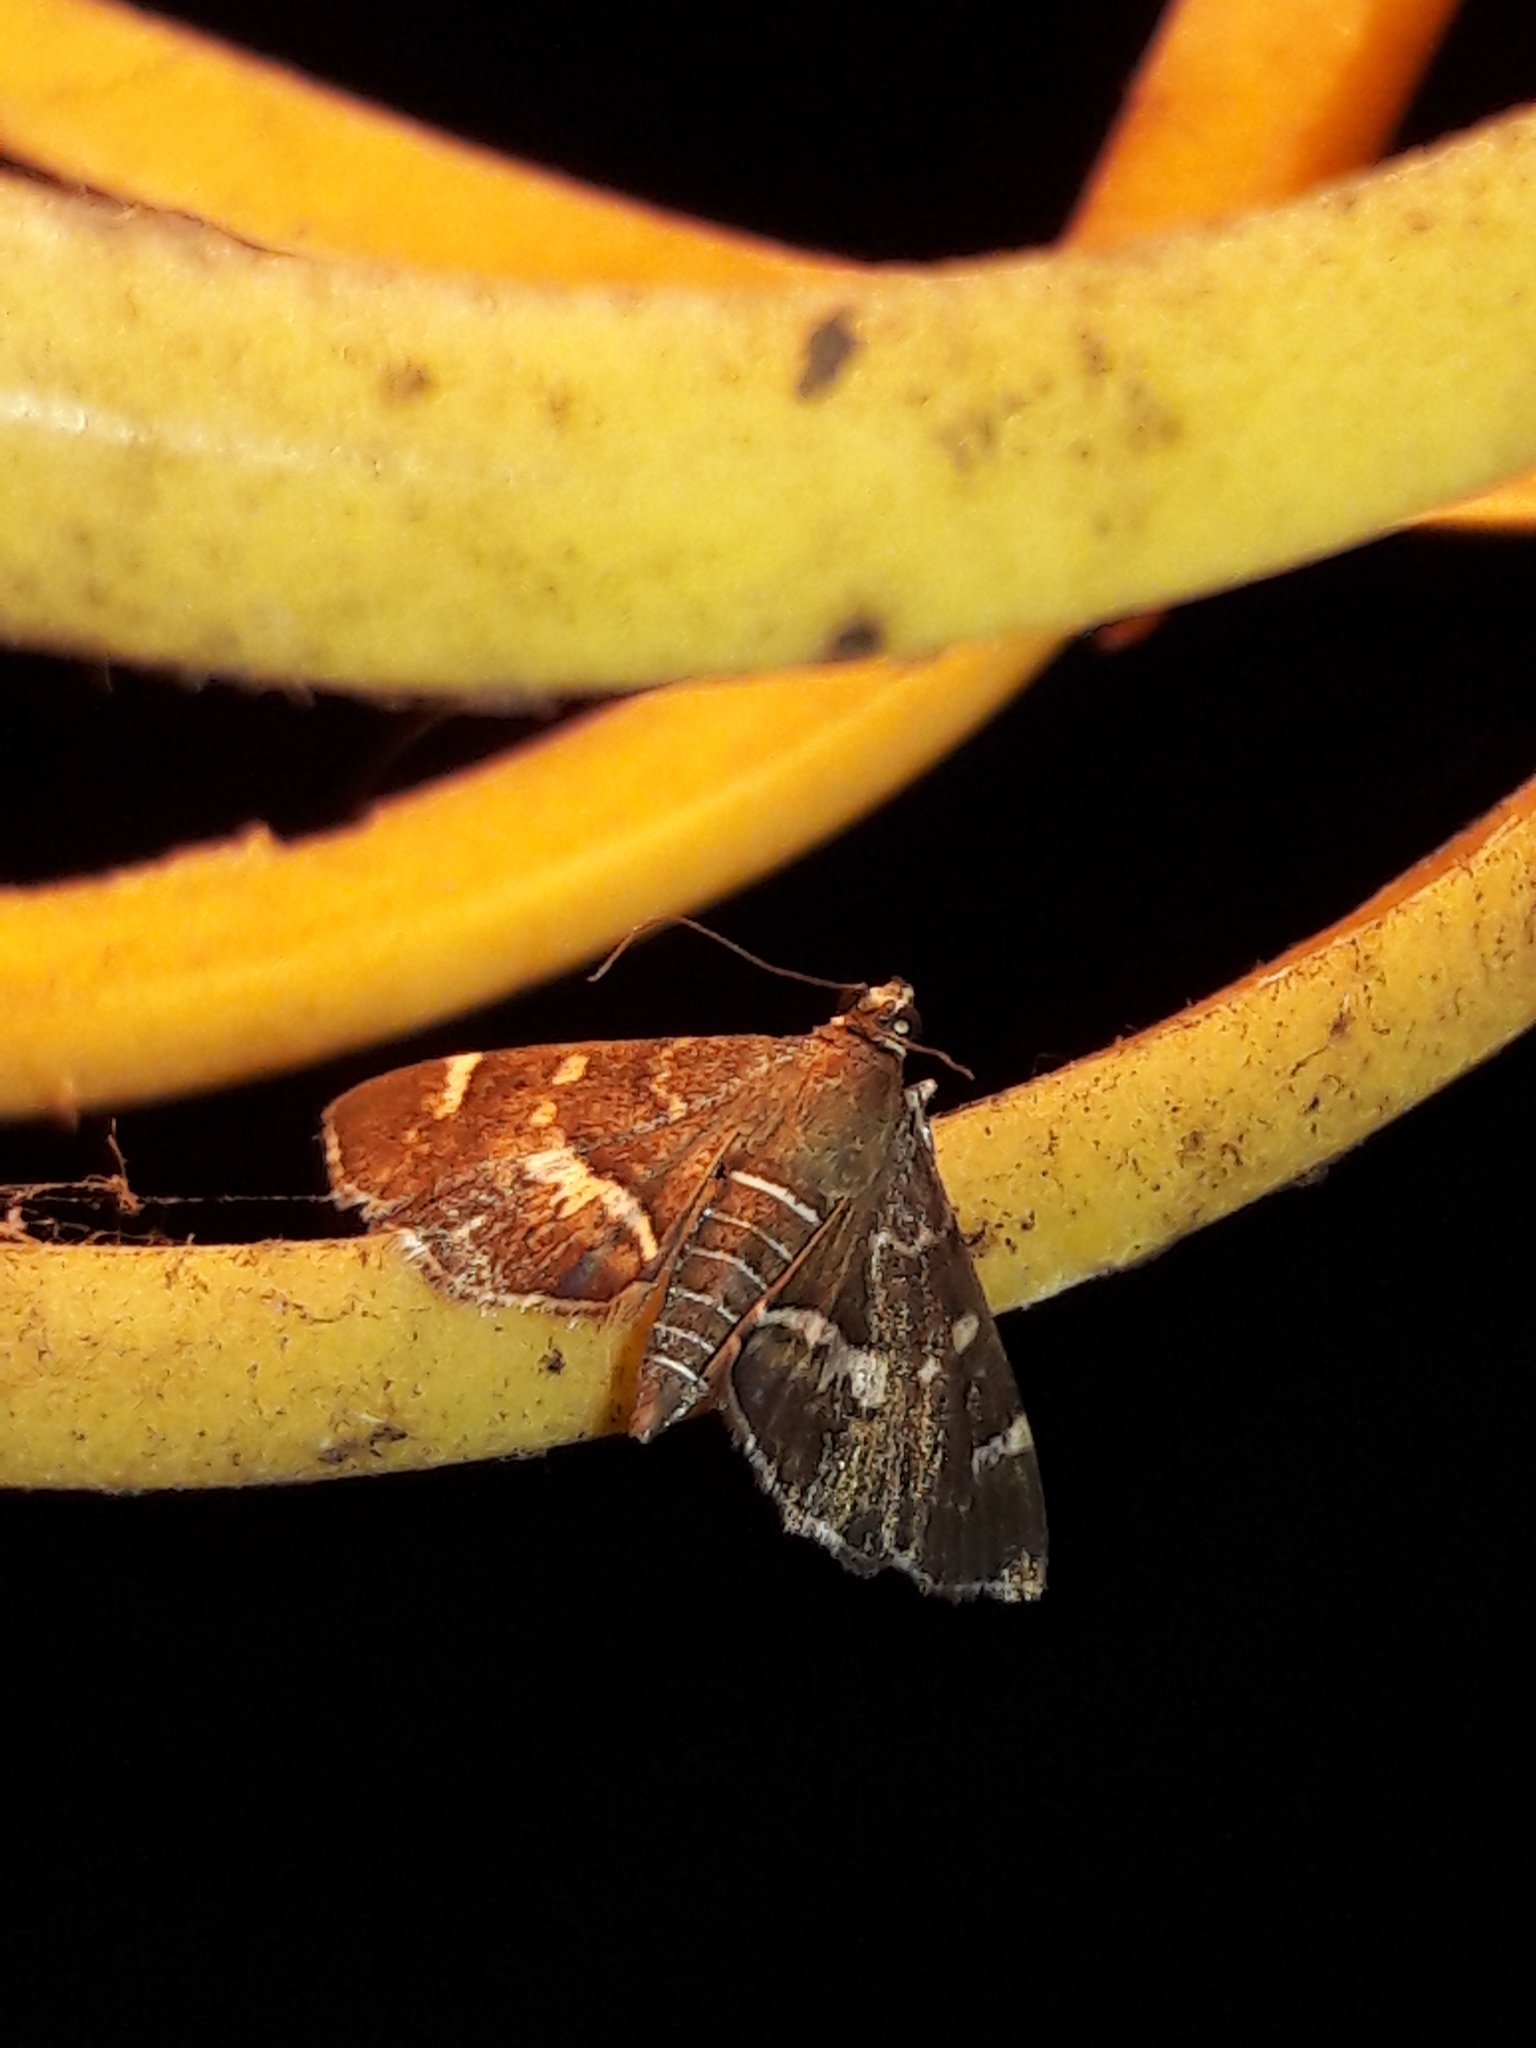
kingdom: Animalia
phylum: Arthropoda
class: Insecta
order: Lepidoptera
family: Crambidae
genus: Hymenia
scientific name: Hymenia perspectalis
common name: Spotted beet webworm
